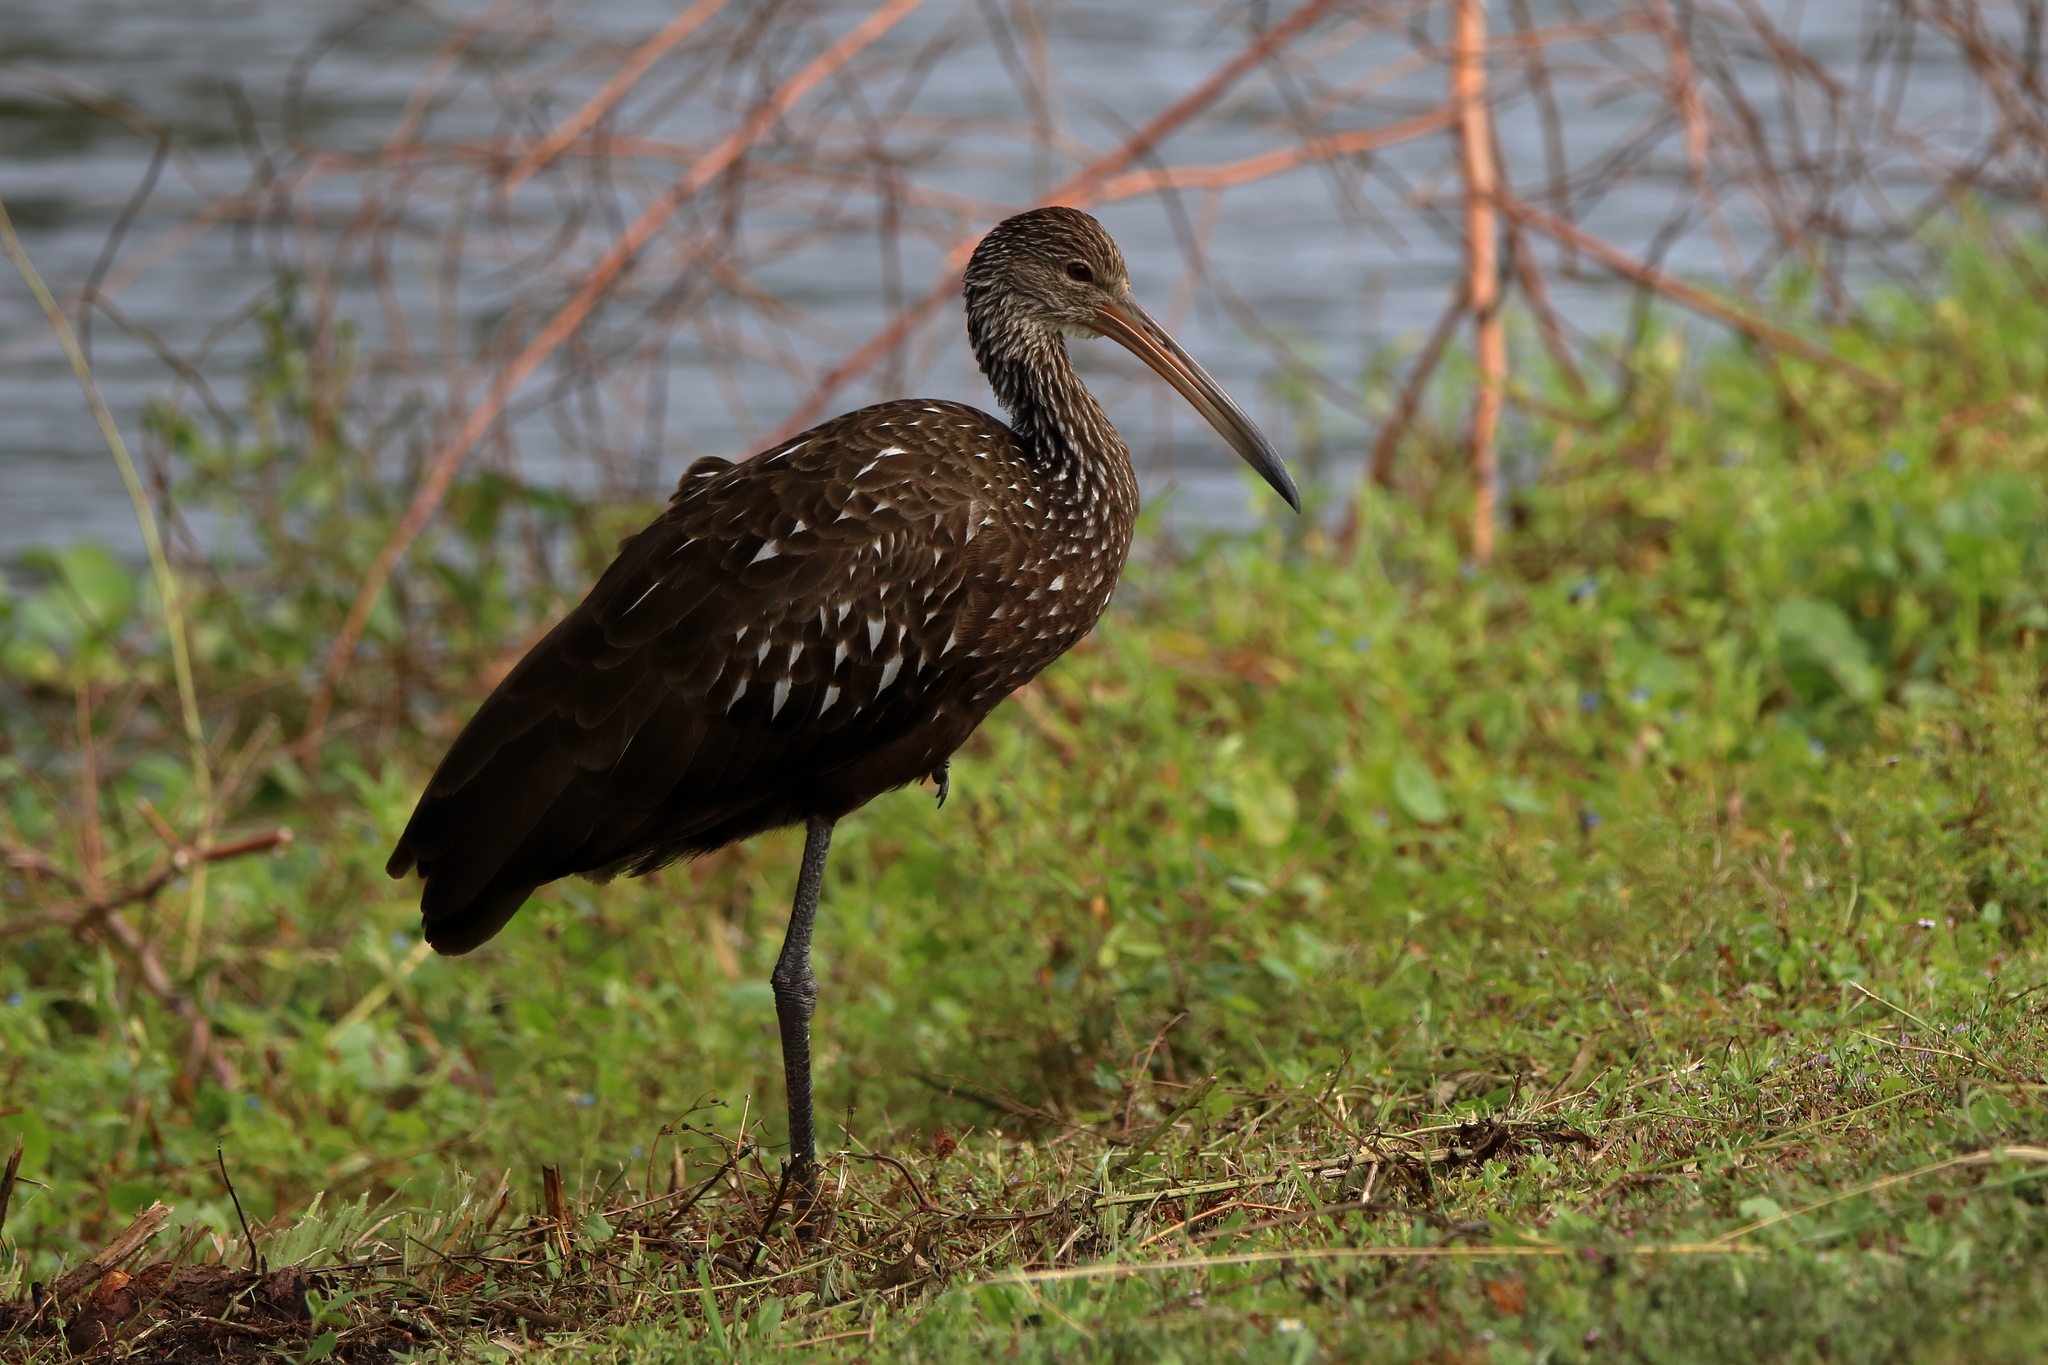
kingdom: Animalia
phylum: Chordata
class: Aves
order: Gruiformes
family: Aramidae
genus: Aramus
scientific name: Aramus guarauna
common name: Limpkin
